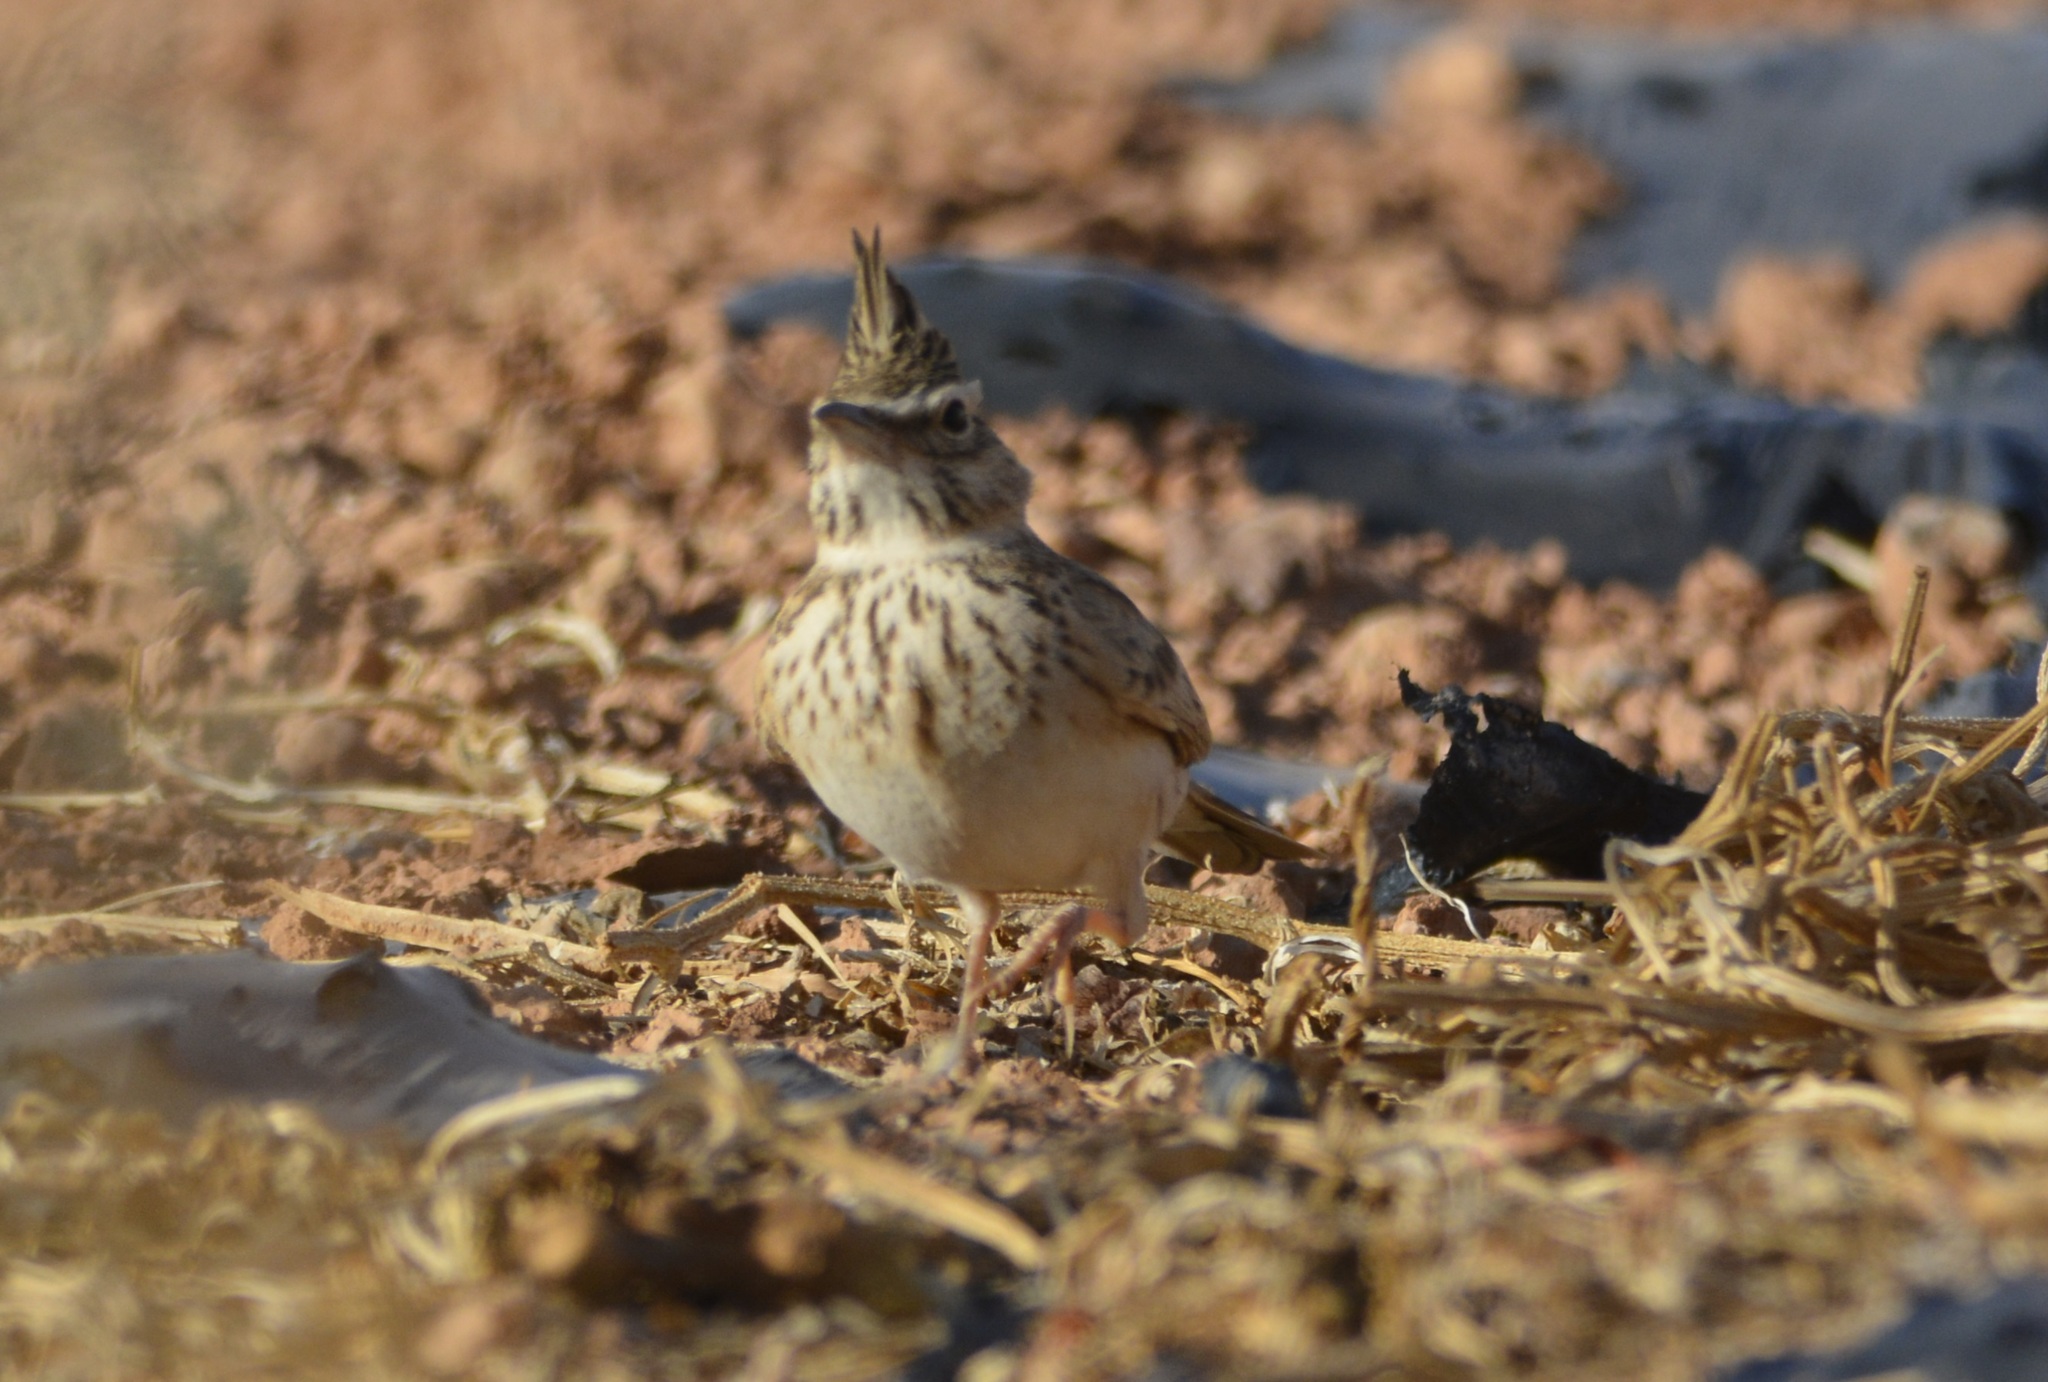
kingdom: Animalia
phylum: Chordata
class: Aves
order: Passeriformes
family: Alaudidae
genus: Galerida
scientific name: Galerida cristata
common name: Crested lark
